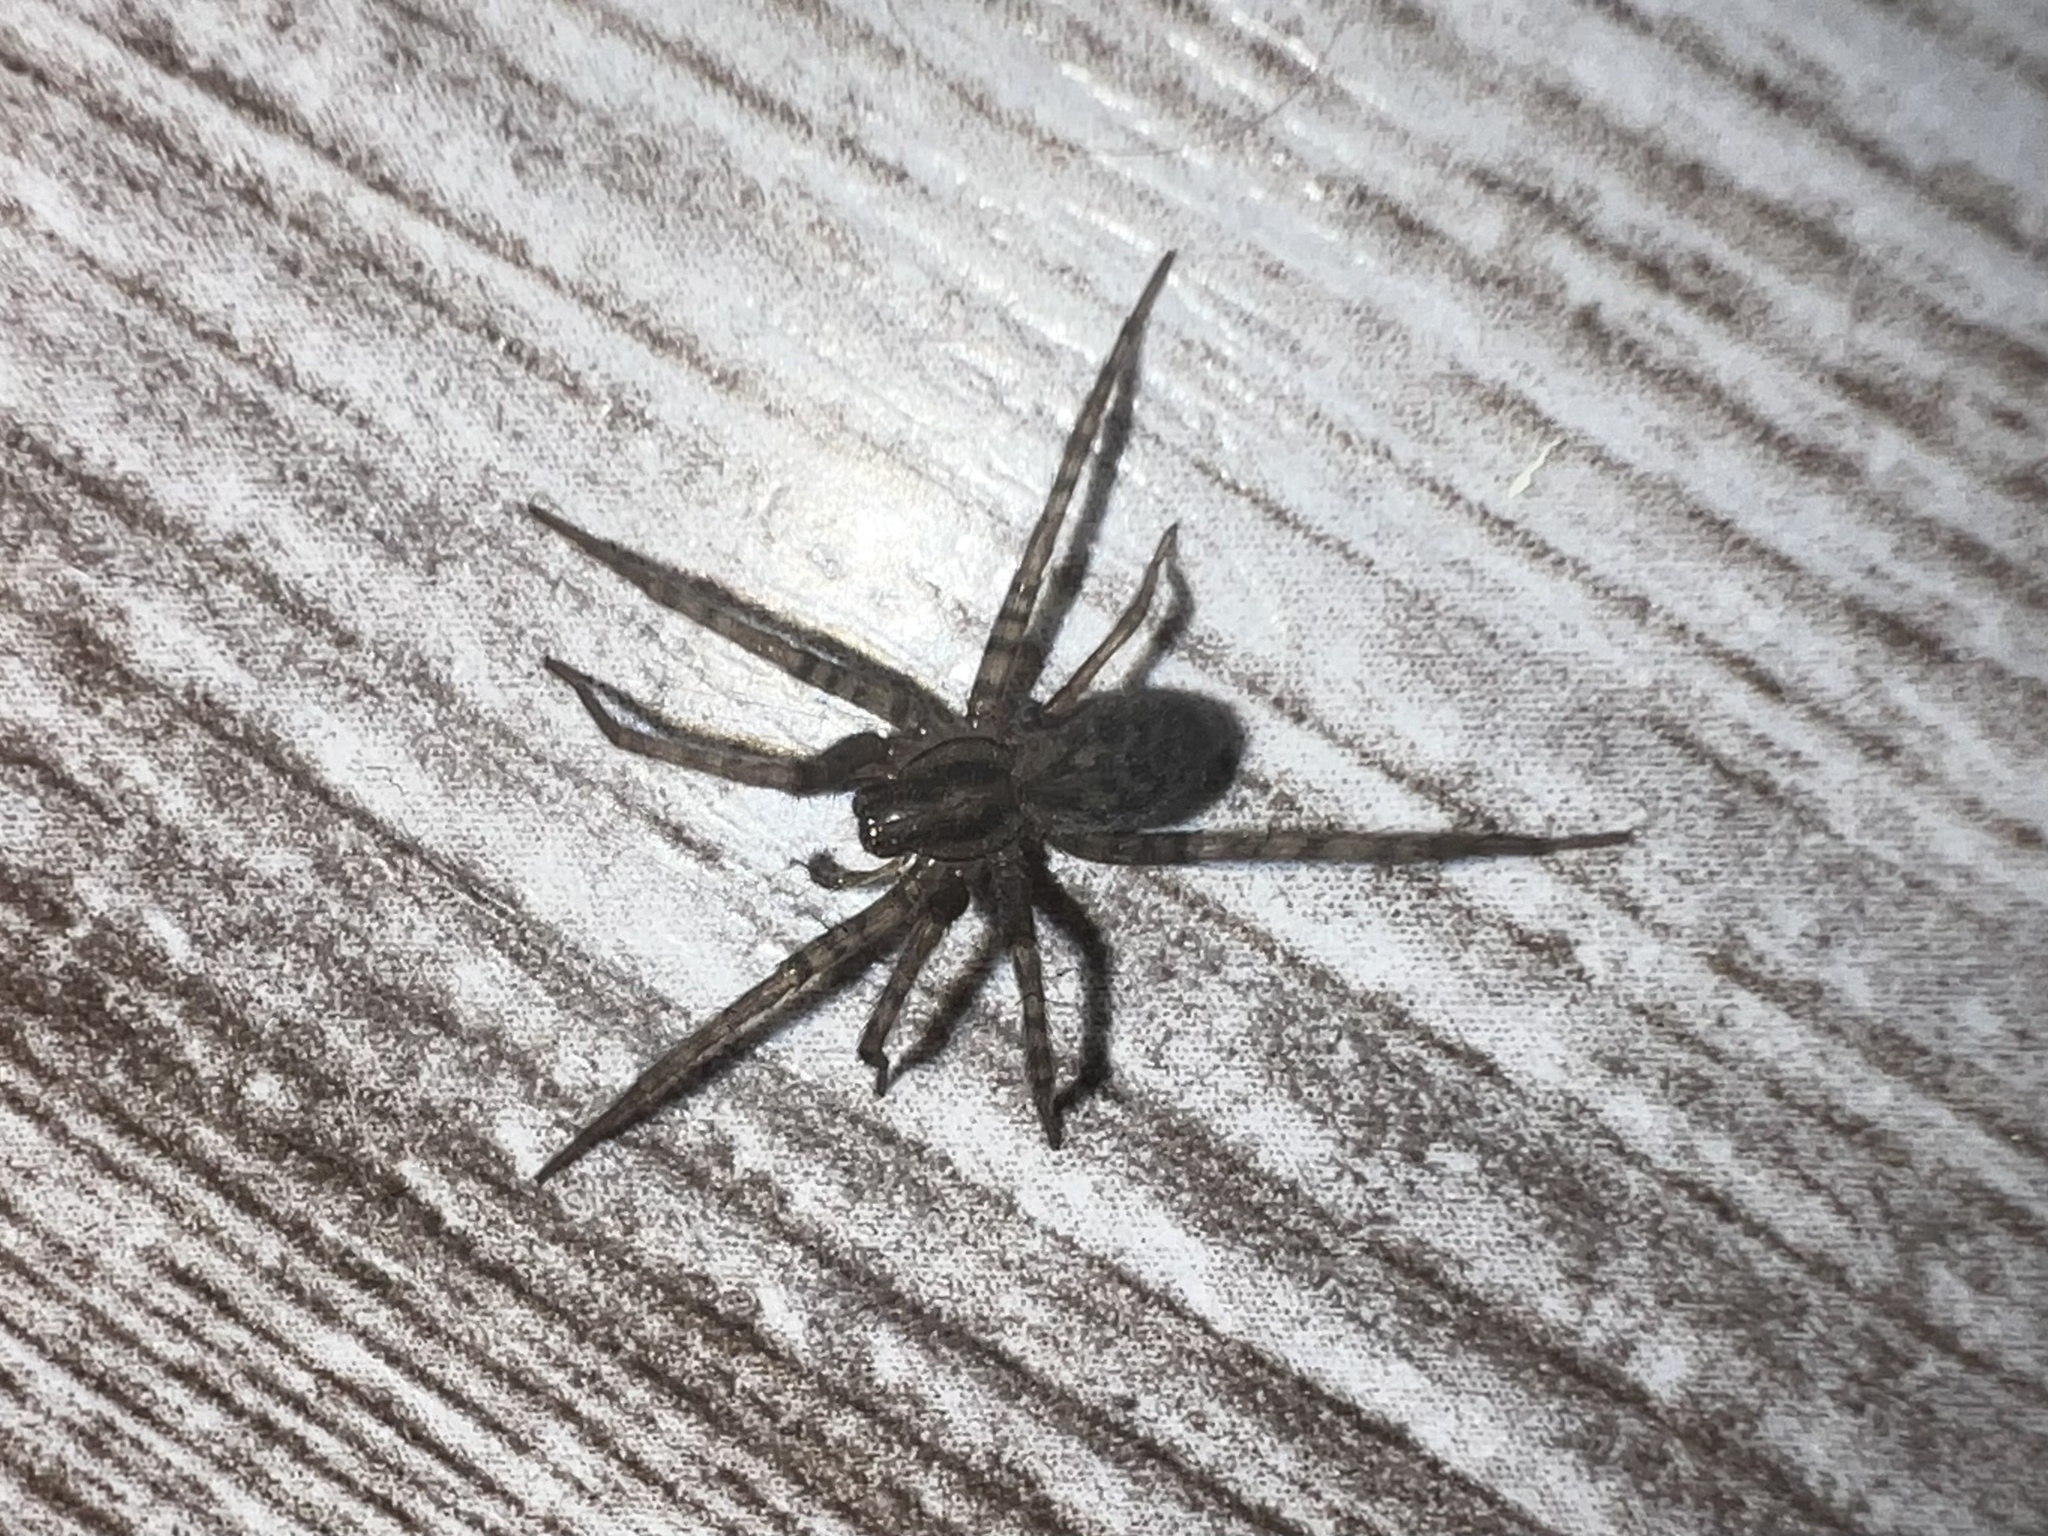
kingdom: Animalia
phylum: Arthropoda
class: Arachnida
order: Araneae
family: Agelenidae
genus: Tegenaria
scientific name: Tegenaria domestica
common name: Barn funnel weaver
